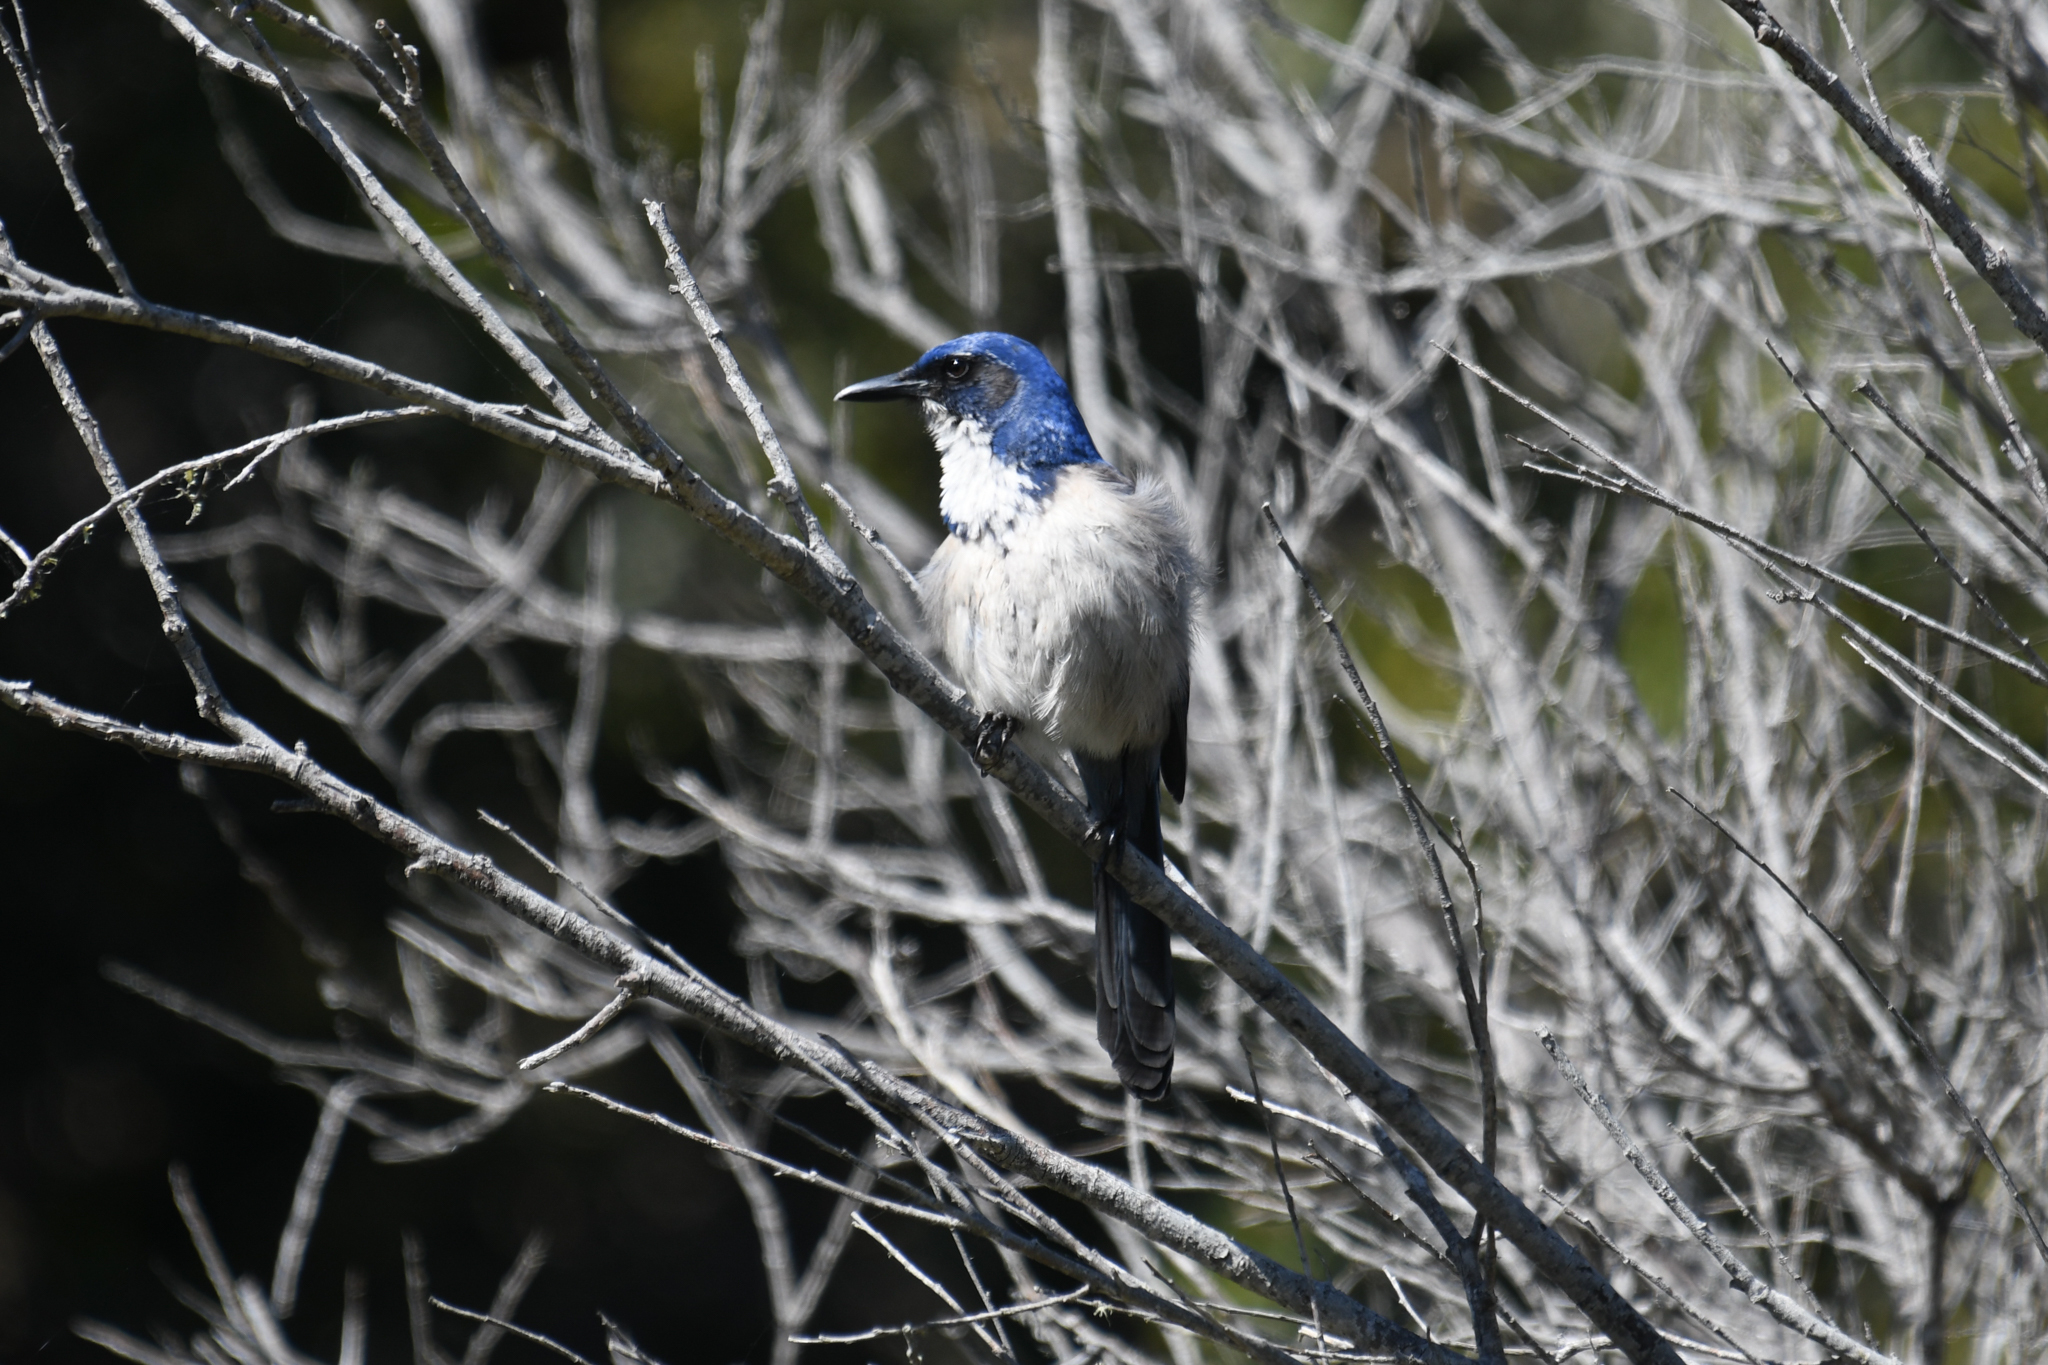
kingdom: Animalia
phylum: Chordata
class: Aves
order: Passeriformes
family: Corvidae
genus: Aphelocoma
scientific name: Aphelocoma insularis
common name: Island scrub-jay
